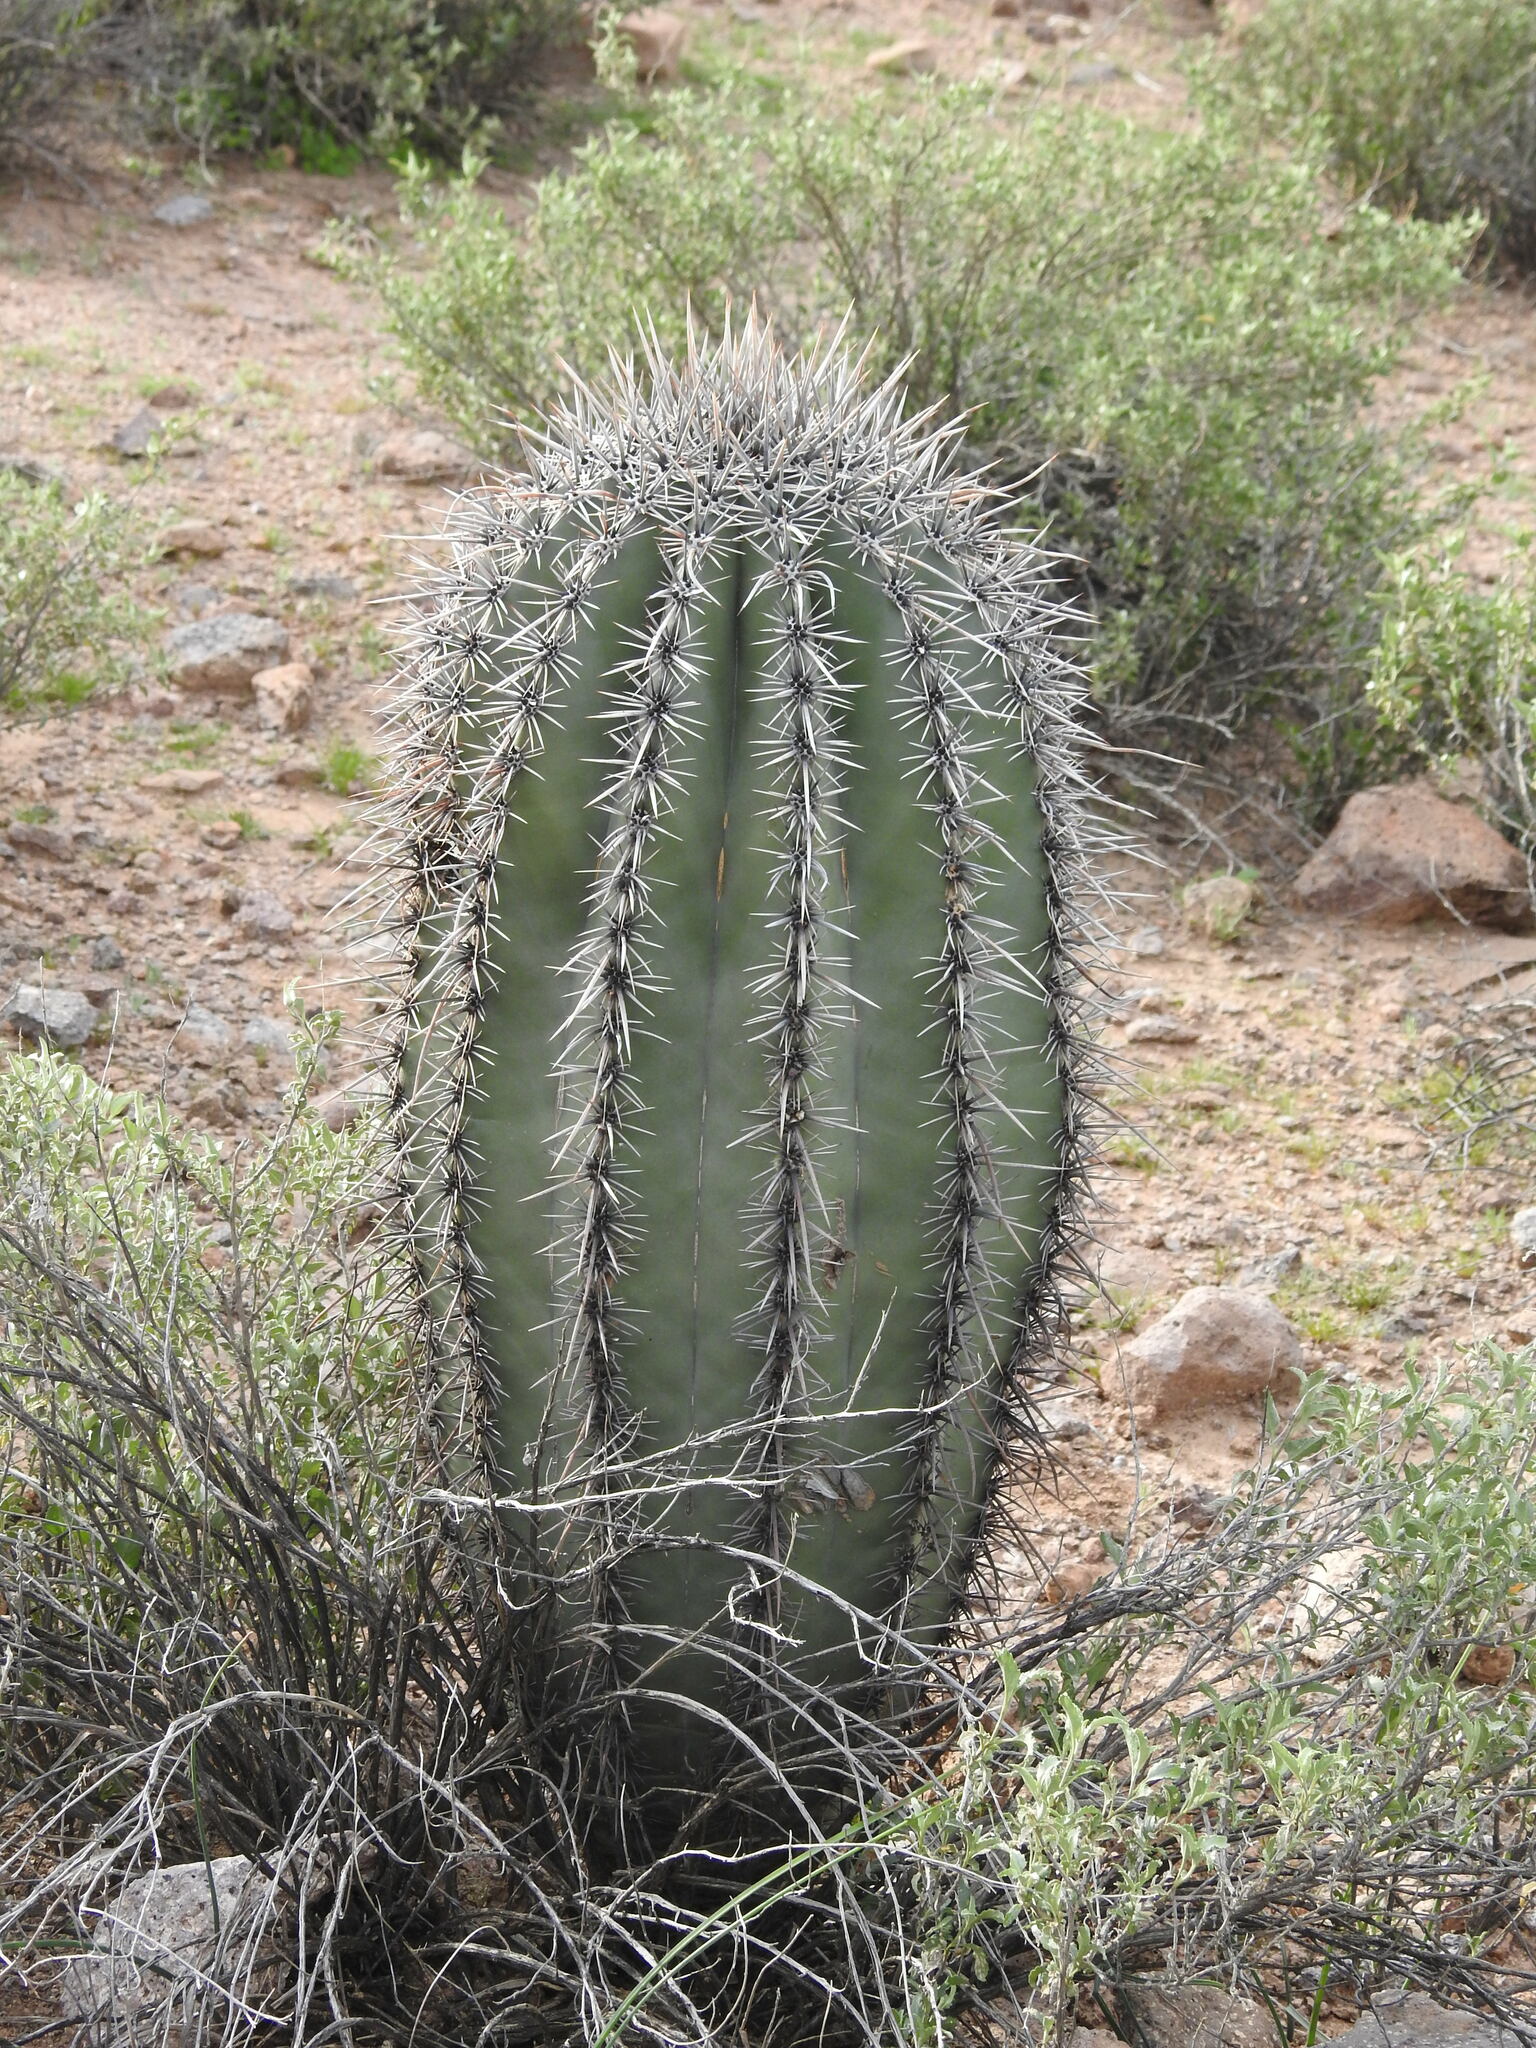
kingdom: Plantae
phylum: Tracheophyta
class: Magnoliopsida
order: Caryophyllales
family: Cactaceae
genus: Carnegiea
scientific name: Carnegiea gigantea
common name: Saguaro
